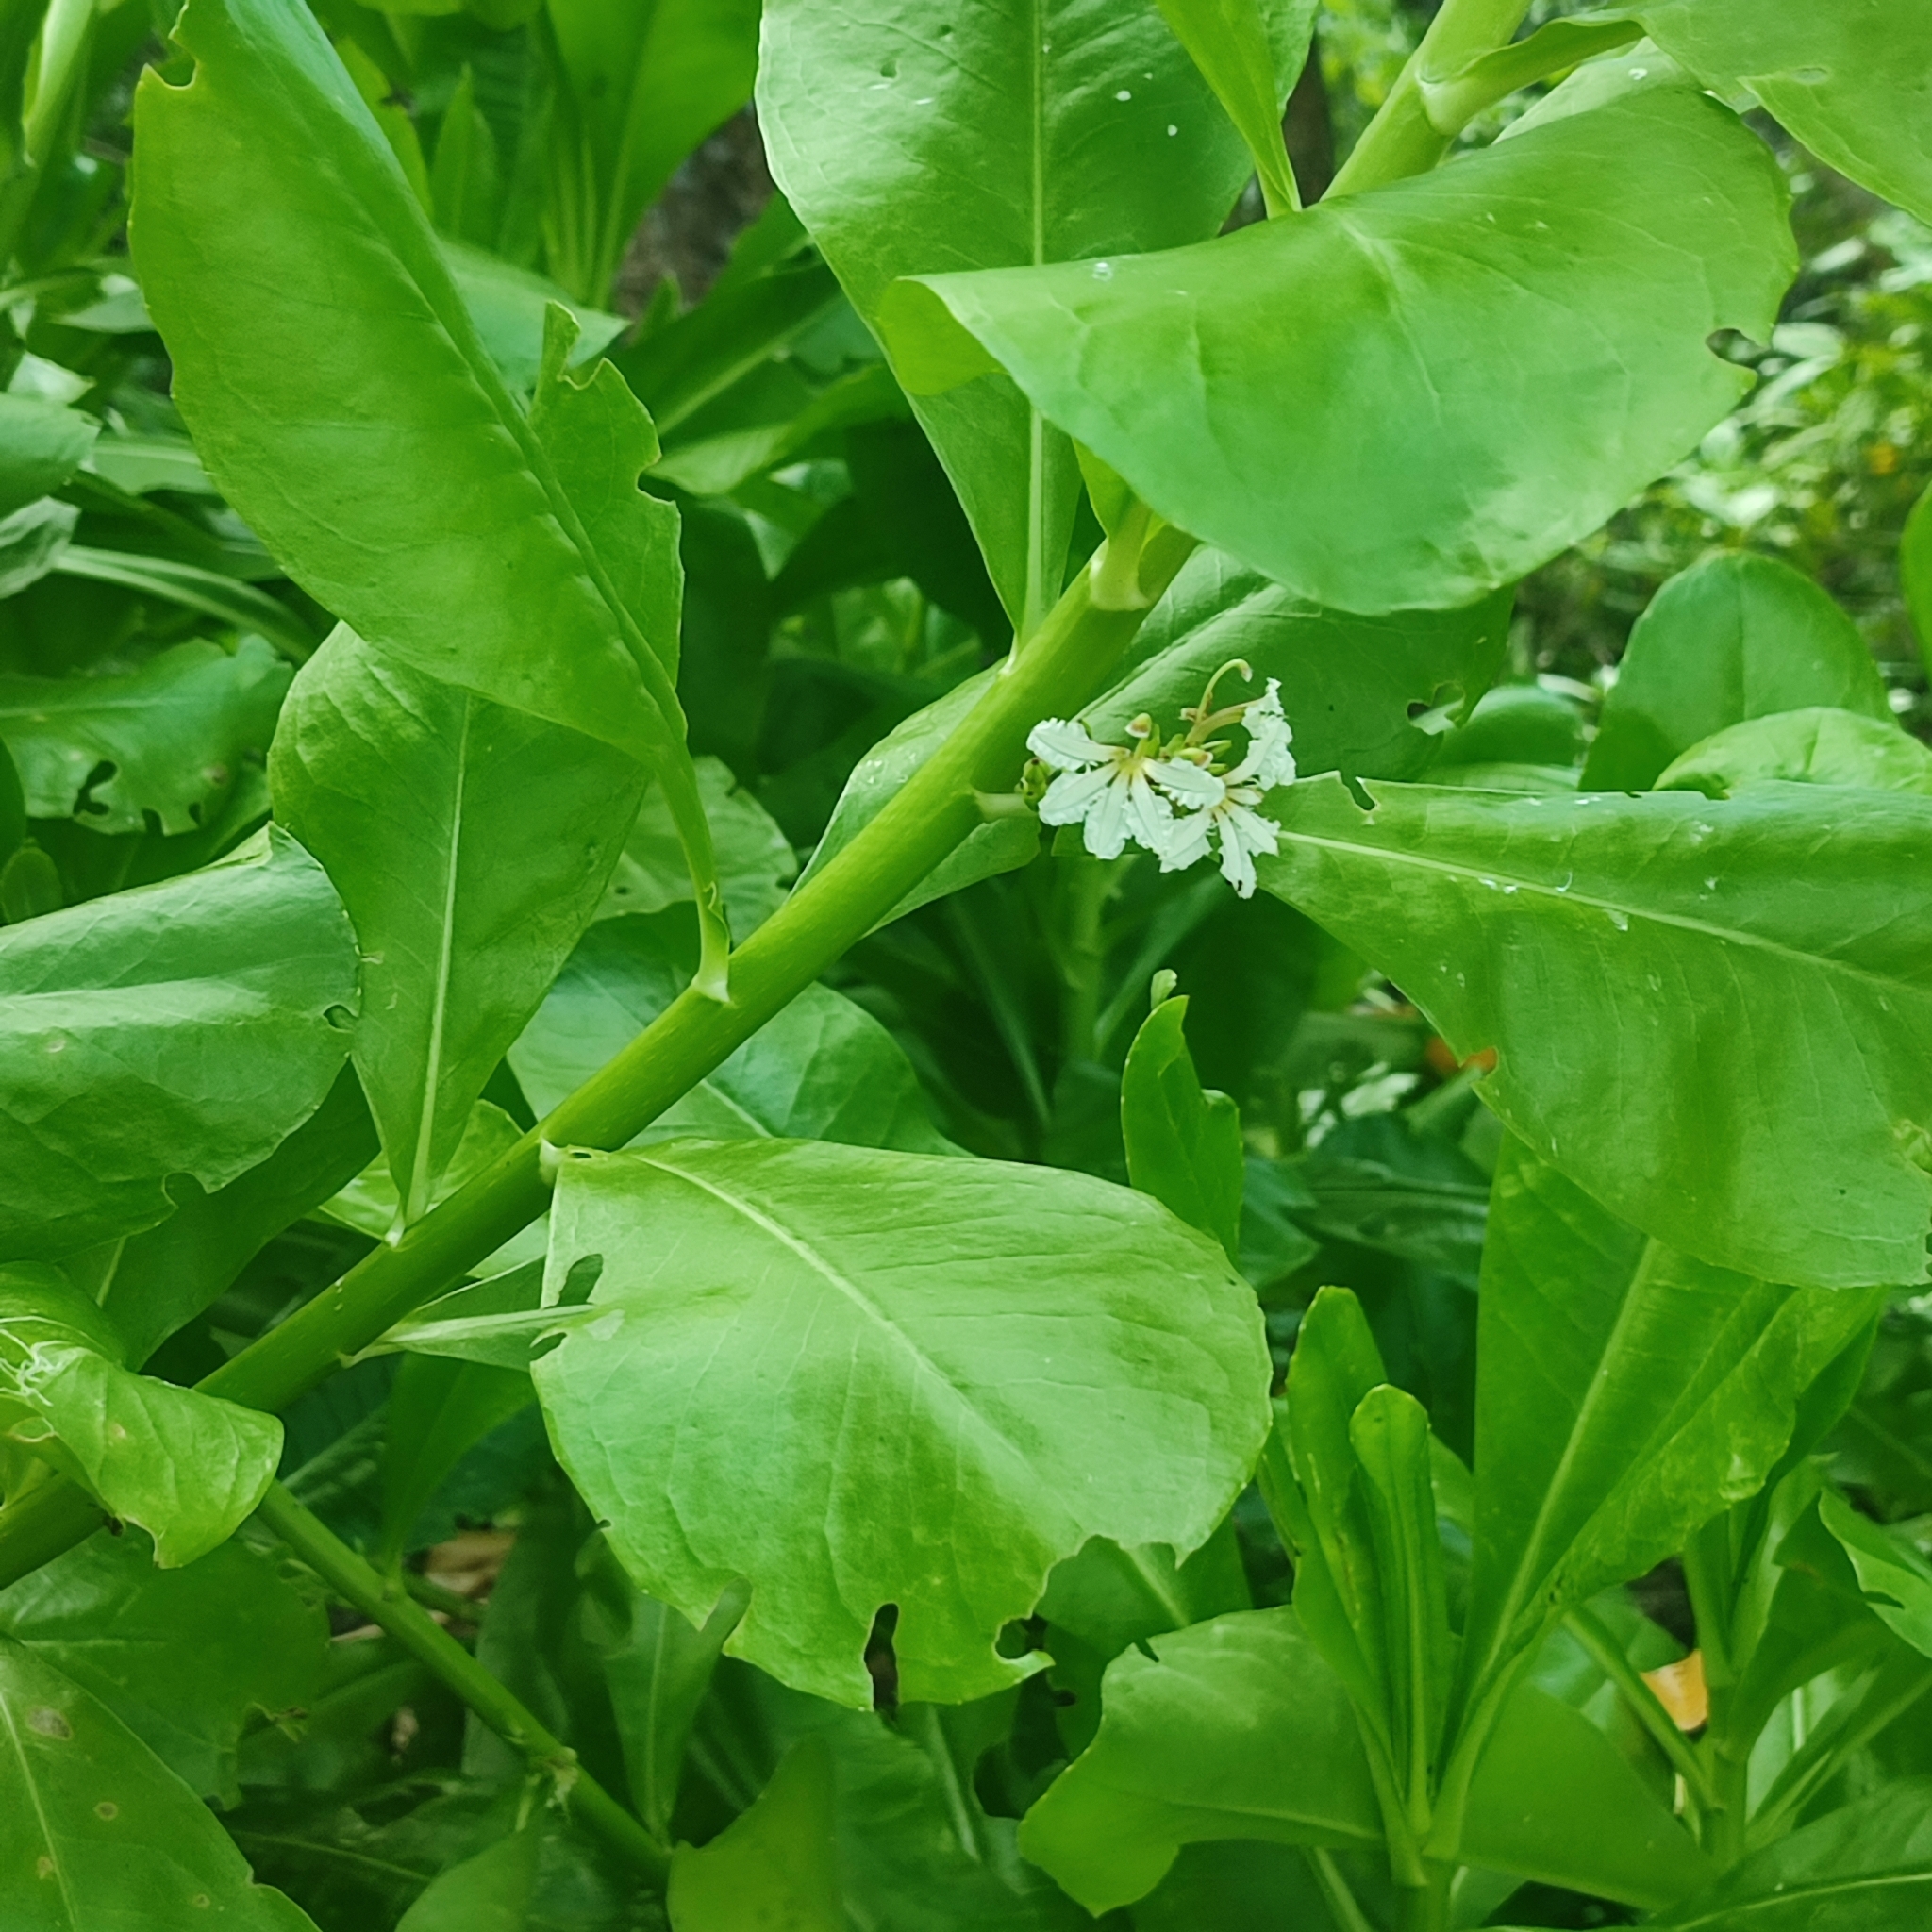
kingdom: Plantae
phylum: Tracheophyta
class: Magnoliopsida
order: Asterales
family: Goodeniaceae
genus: Scaevola
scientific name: Scaevola taccada
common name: Sea lettucetree
